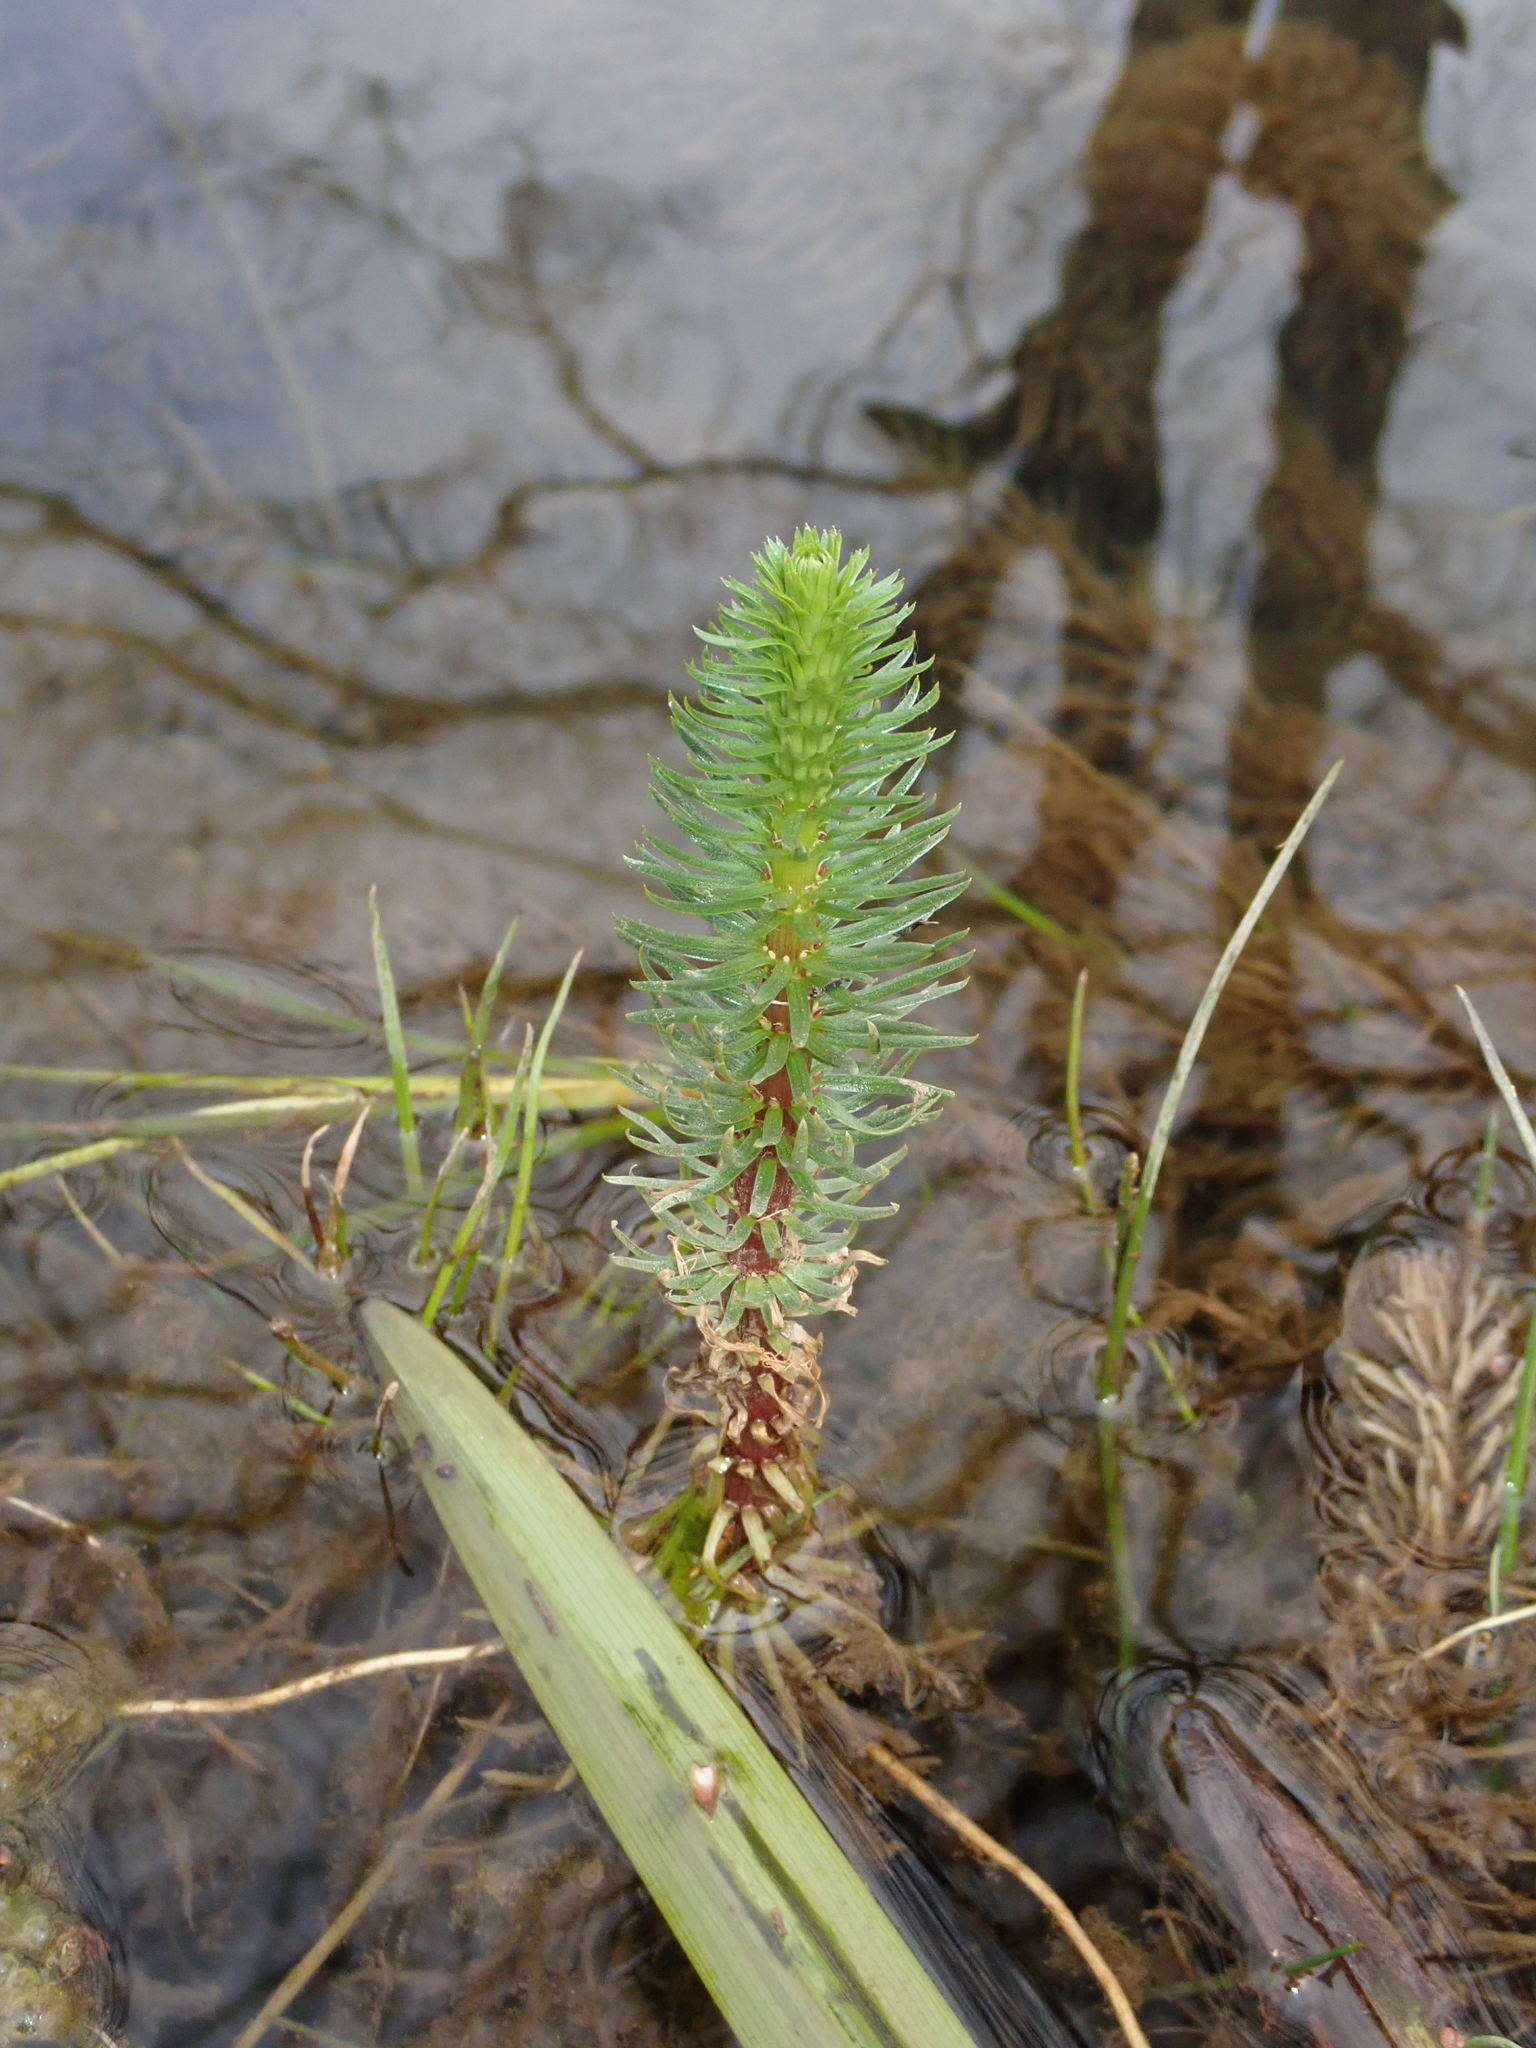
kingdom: Plantae
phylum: Tracheophyta
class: Magnoliopsida
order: Lamiales
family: Plantaginaceae
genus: Hippuris
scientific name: Hippuris vulgaris
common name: Mare's-tail
